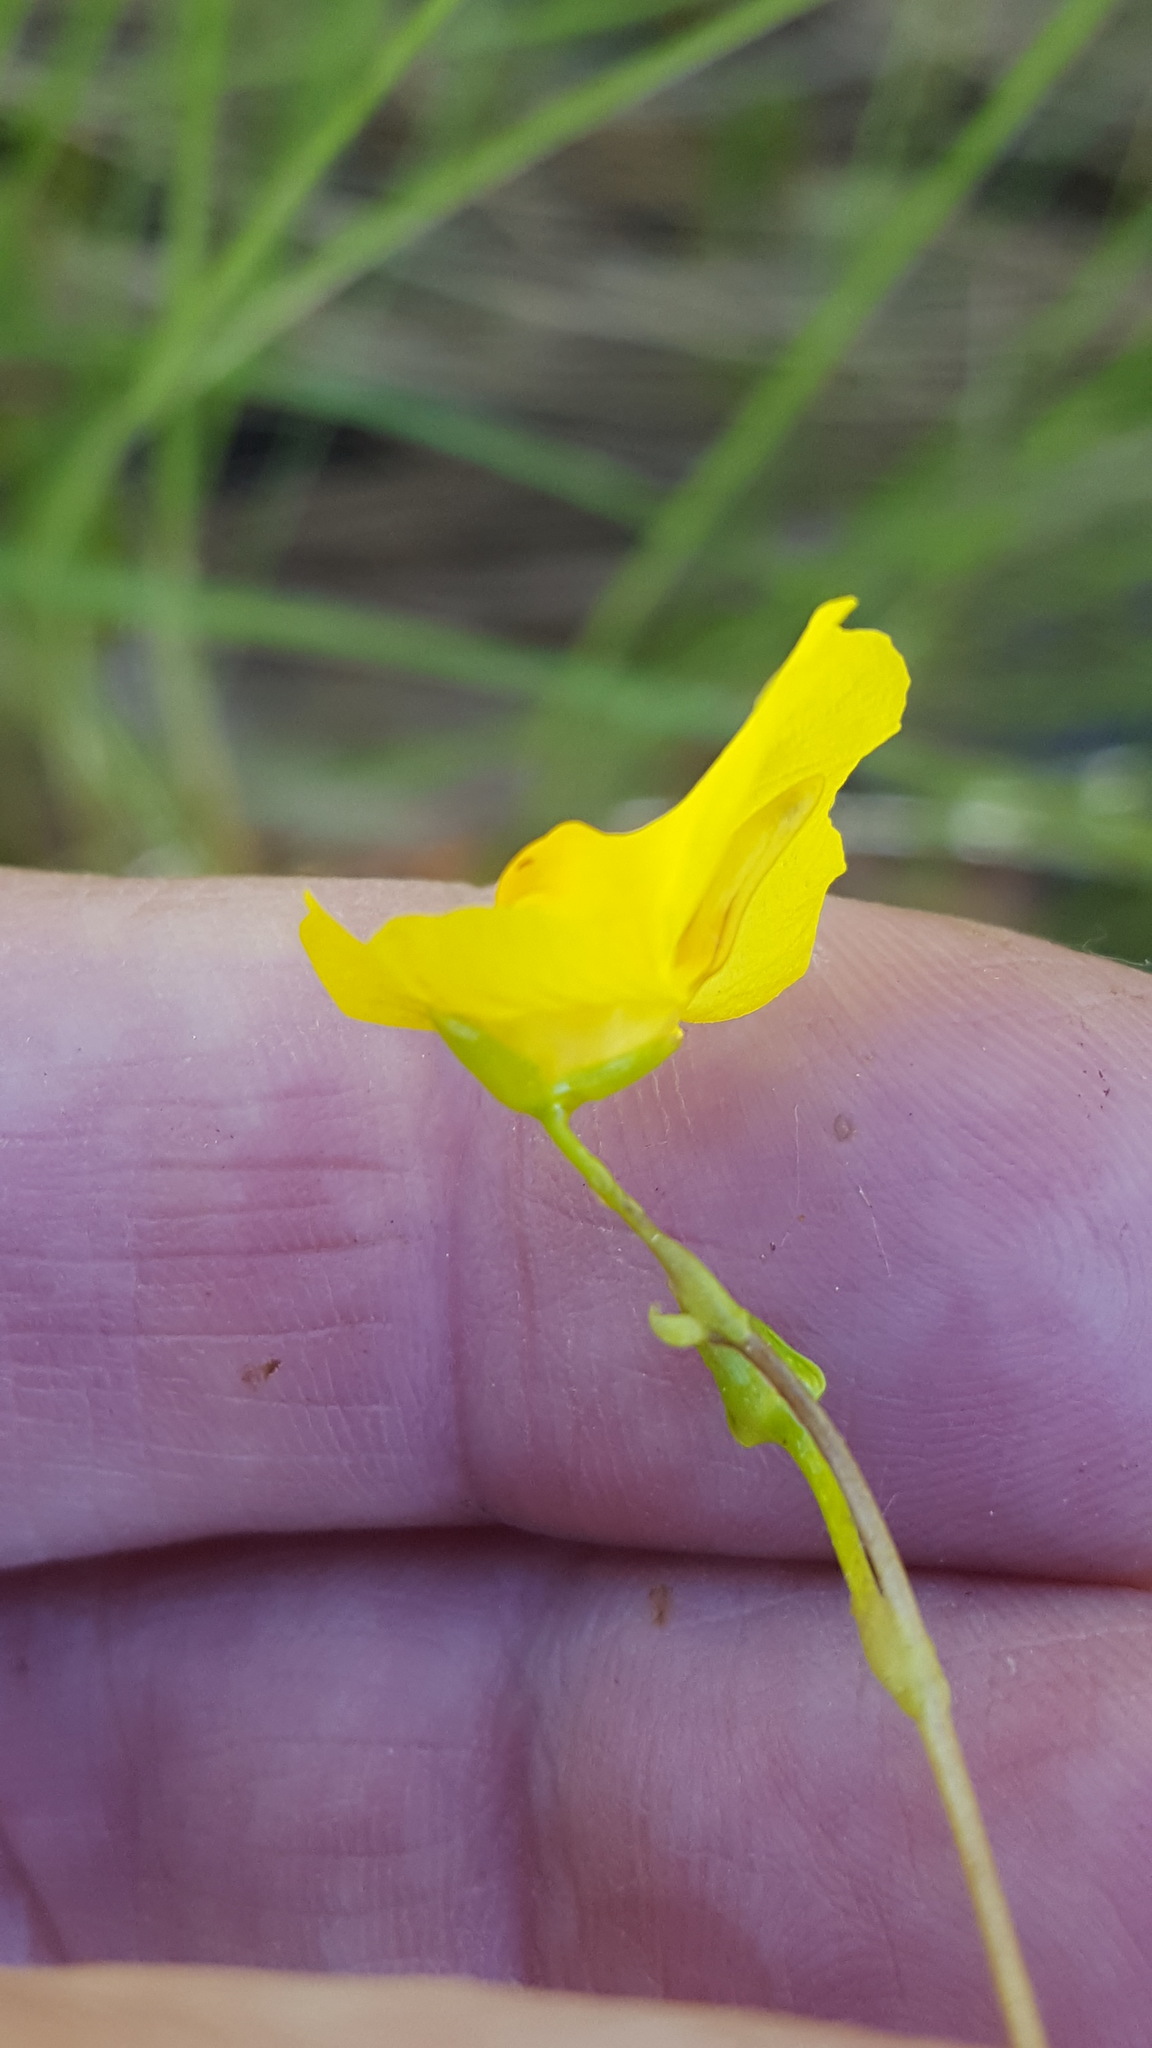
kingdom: Plantae
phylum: Tracheophyta
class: Magnoliopsida
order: Lamiales
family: Lentibulariaceae
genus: Utricularia
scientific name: Utricularia intermedia
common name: Intermediate bladderwort
